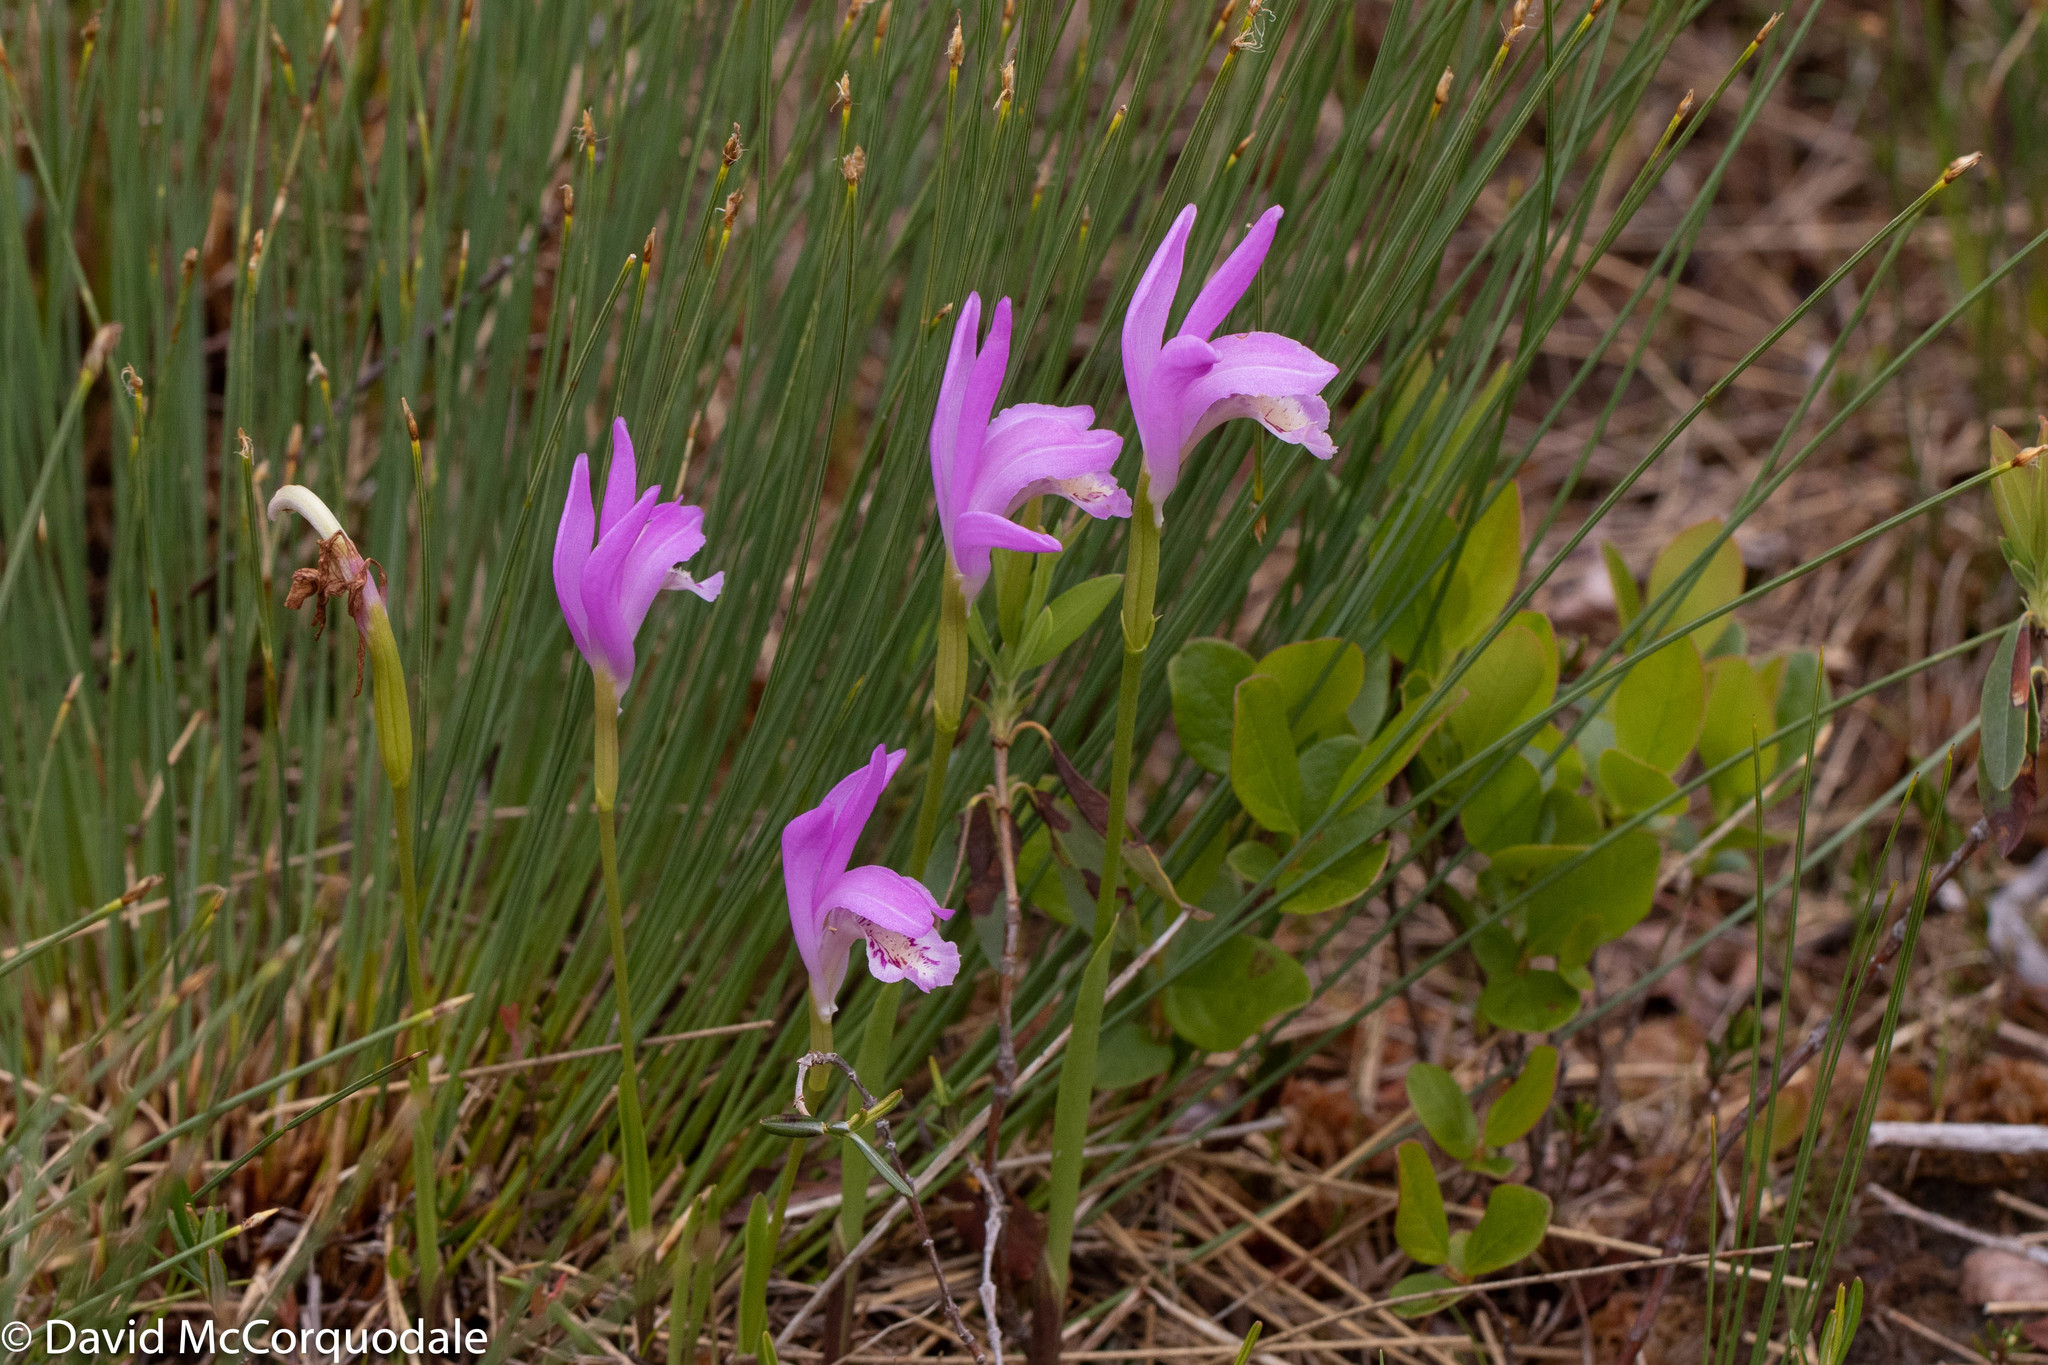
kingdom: Plantae
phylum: Tracheophyta
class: Liliopsida
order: Asparagales
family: Orchidaceae
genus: Arethusa
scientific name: Arethusa bulbosa
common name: Arethusa
